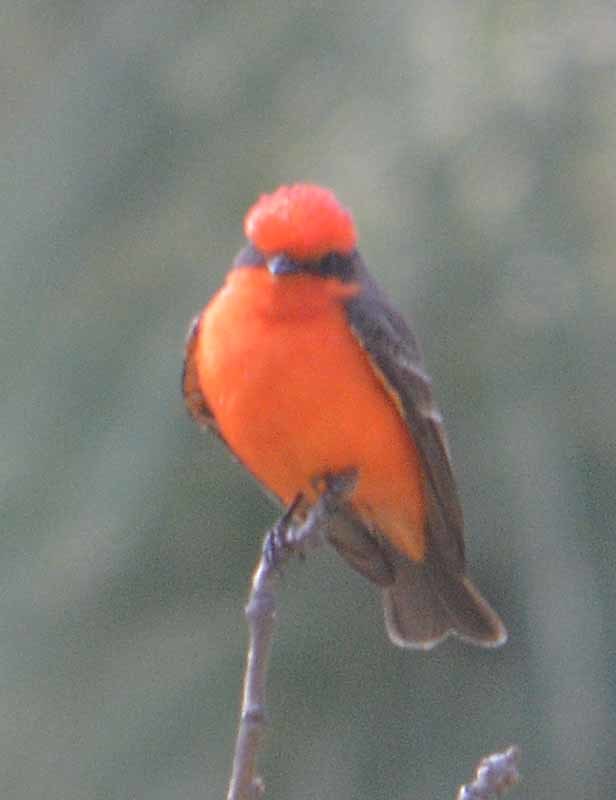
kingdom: Animalia
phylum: Chordata
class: Aves
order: Passeriformes
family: Tyrannidae
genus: Pyrocephalus
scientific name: Pyrocephalus rubinus
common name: Vermilion flycatcher
